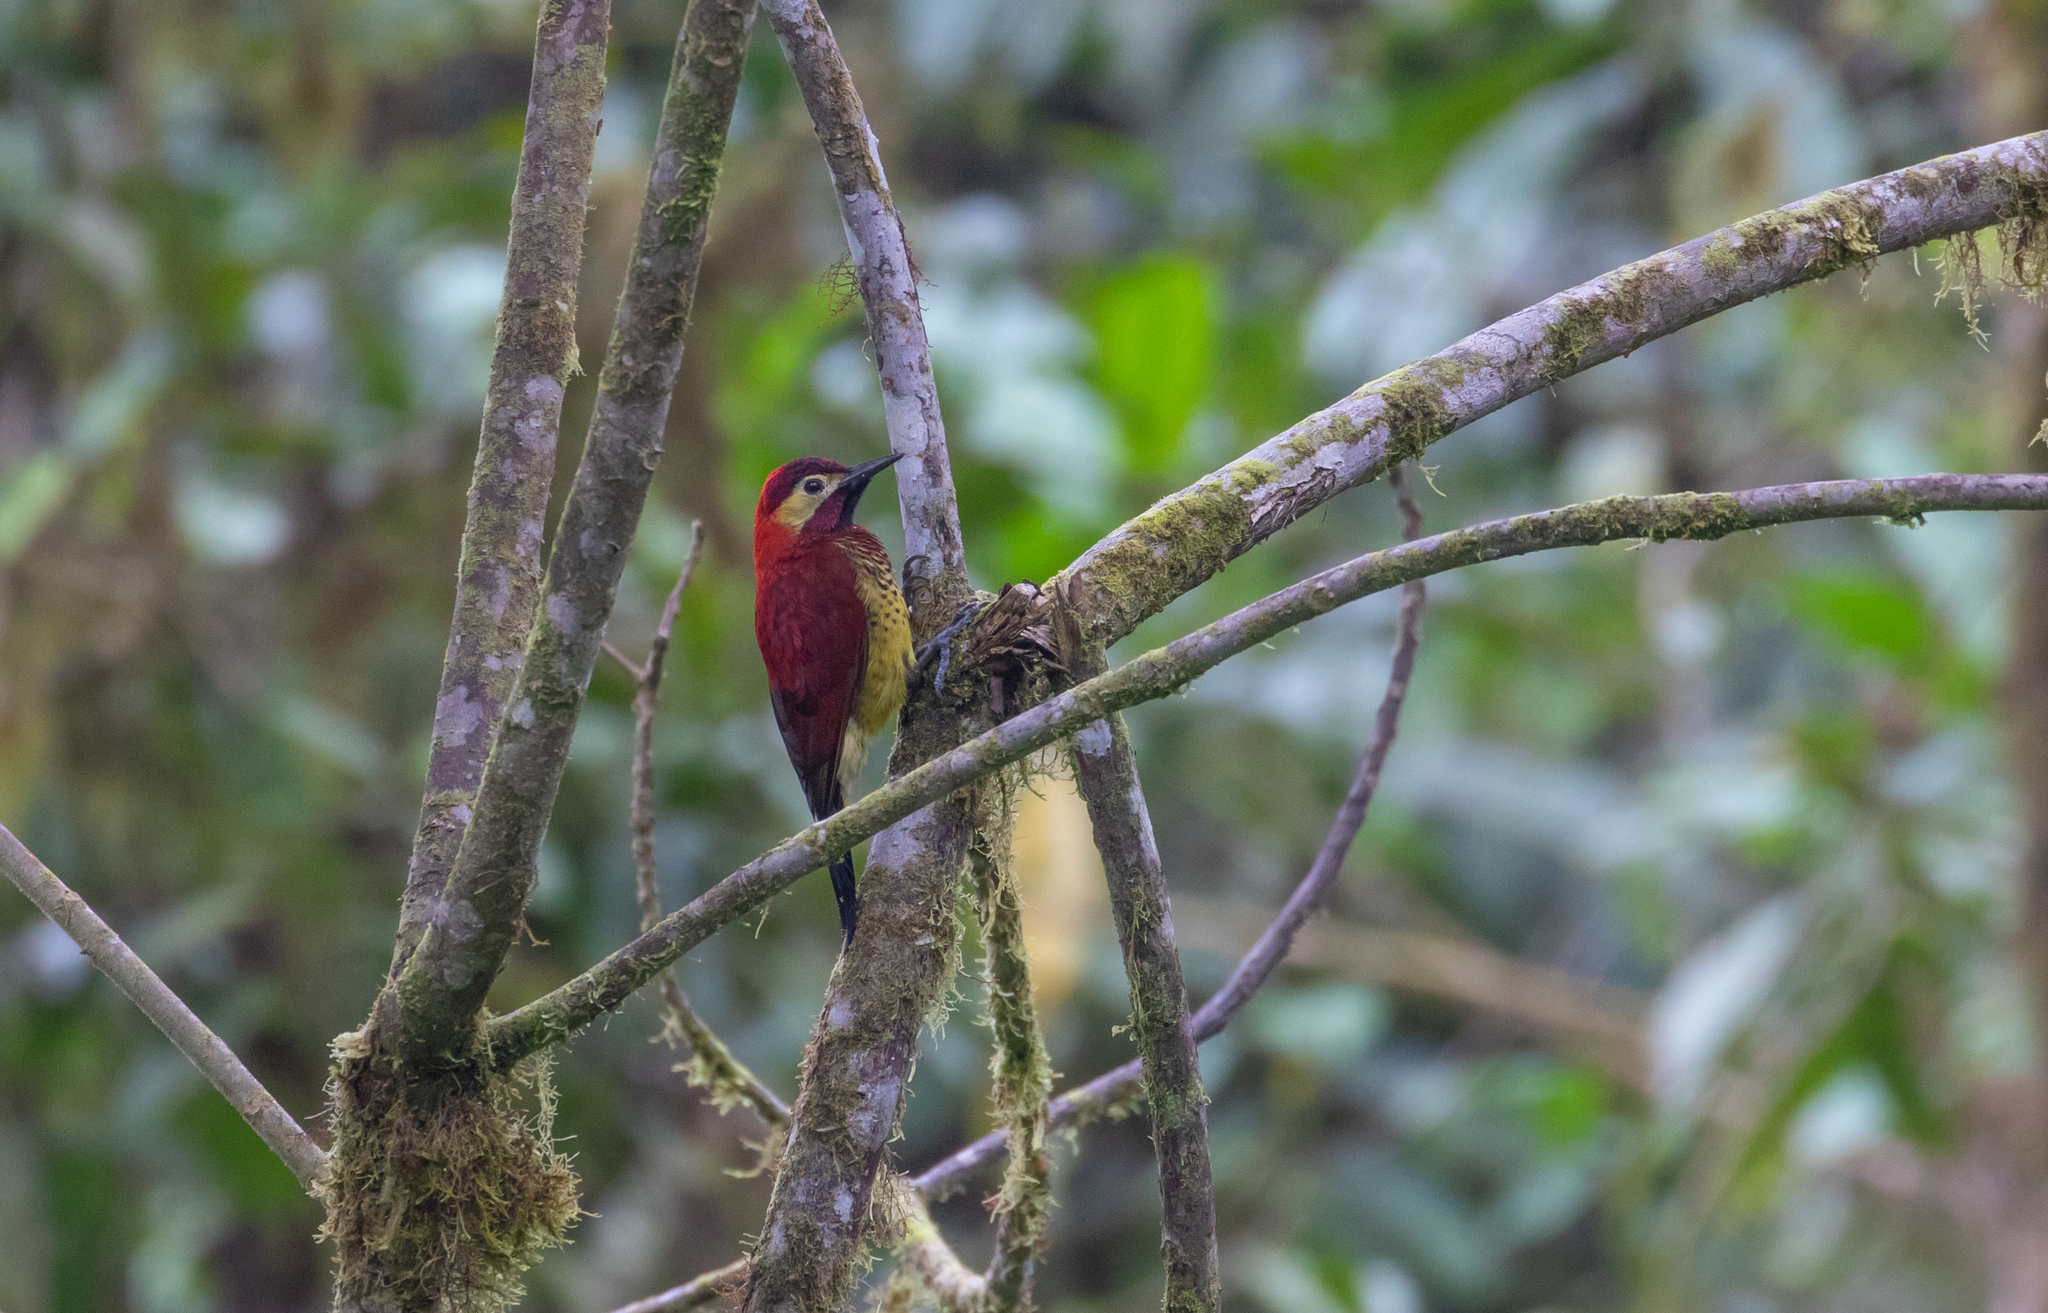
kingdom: Animalia
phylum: Chordata
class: Aves
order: Piciformes
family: Picidae
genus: Colaptes
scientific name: Colaptes rivolii
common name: Crimson-mantled woodpecker
